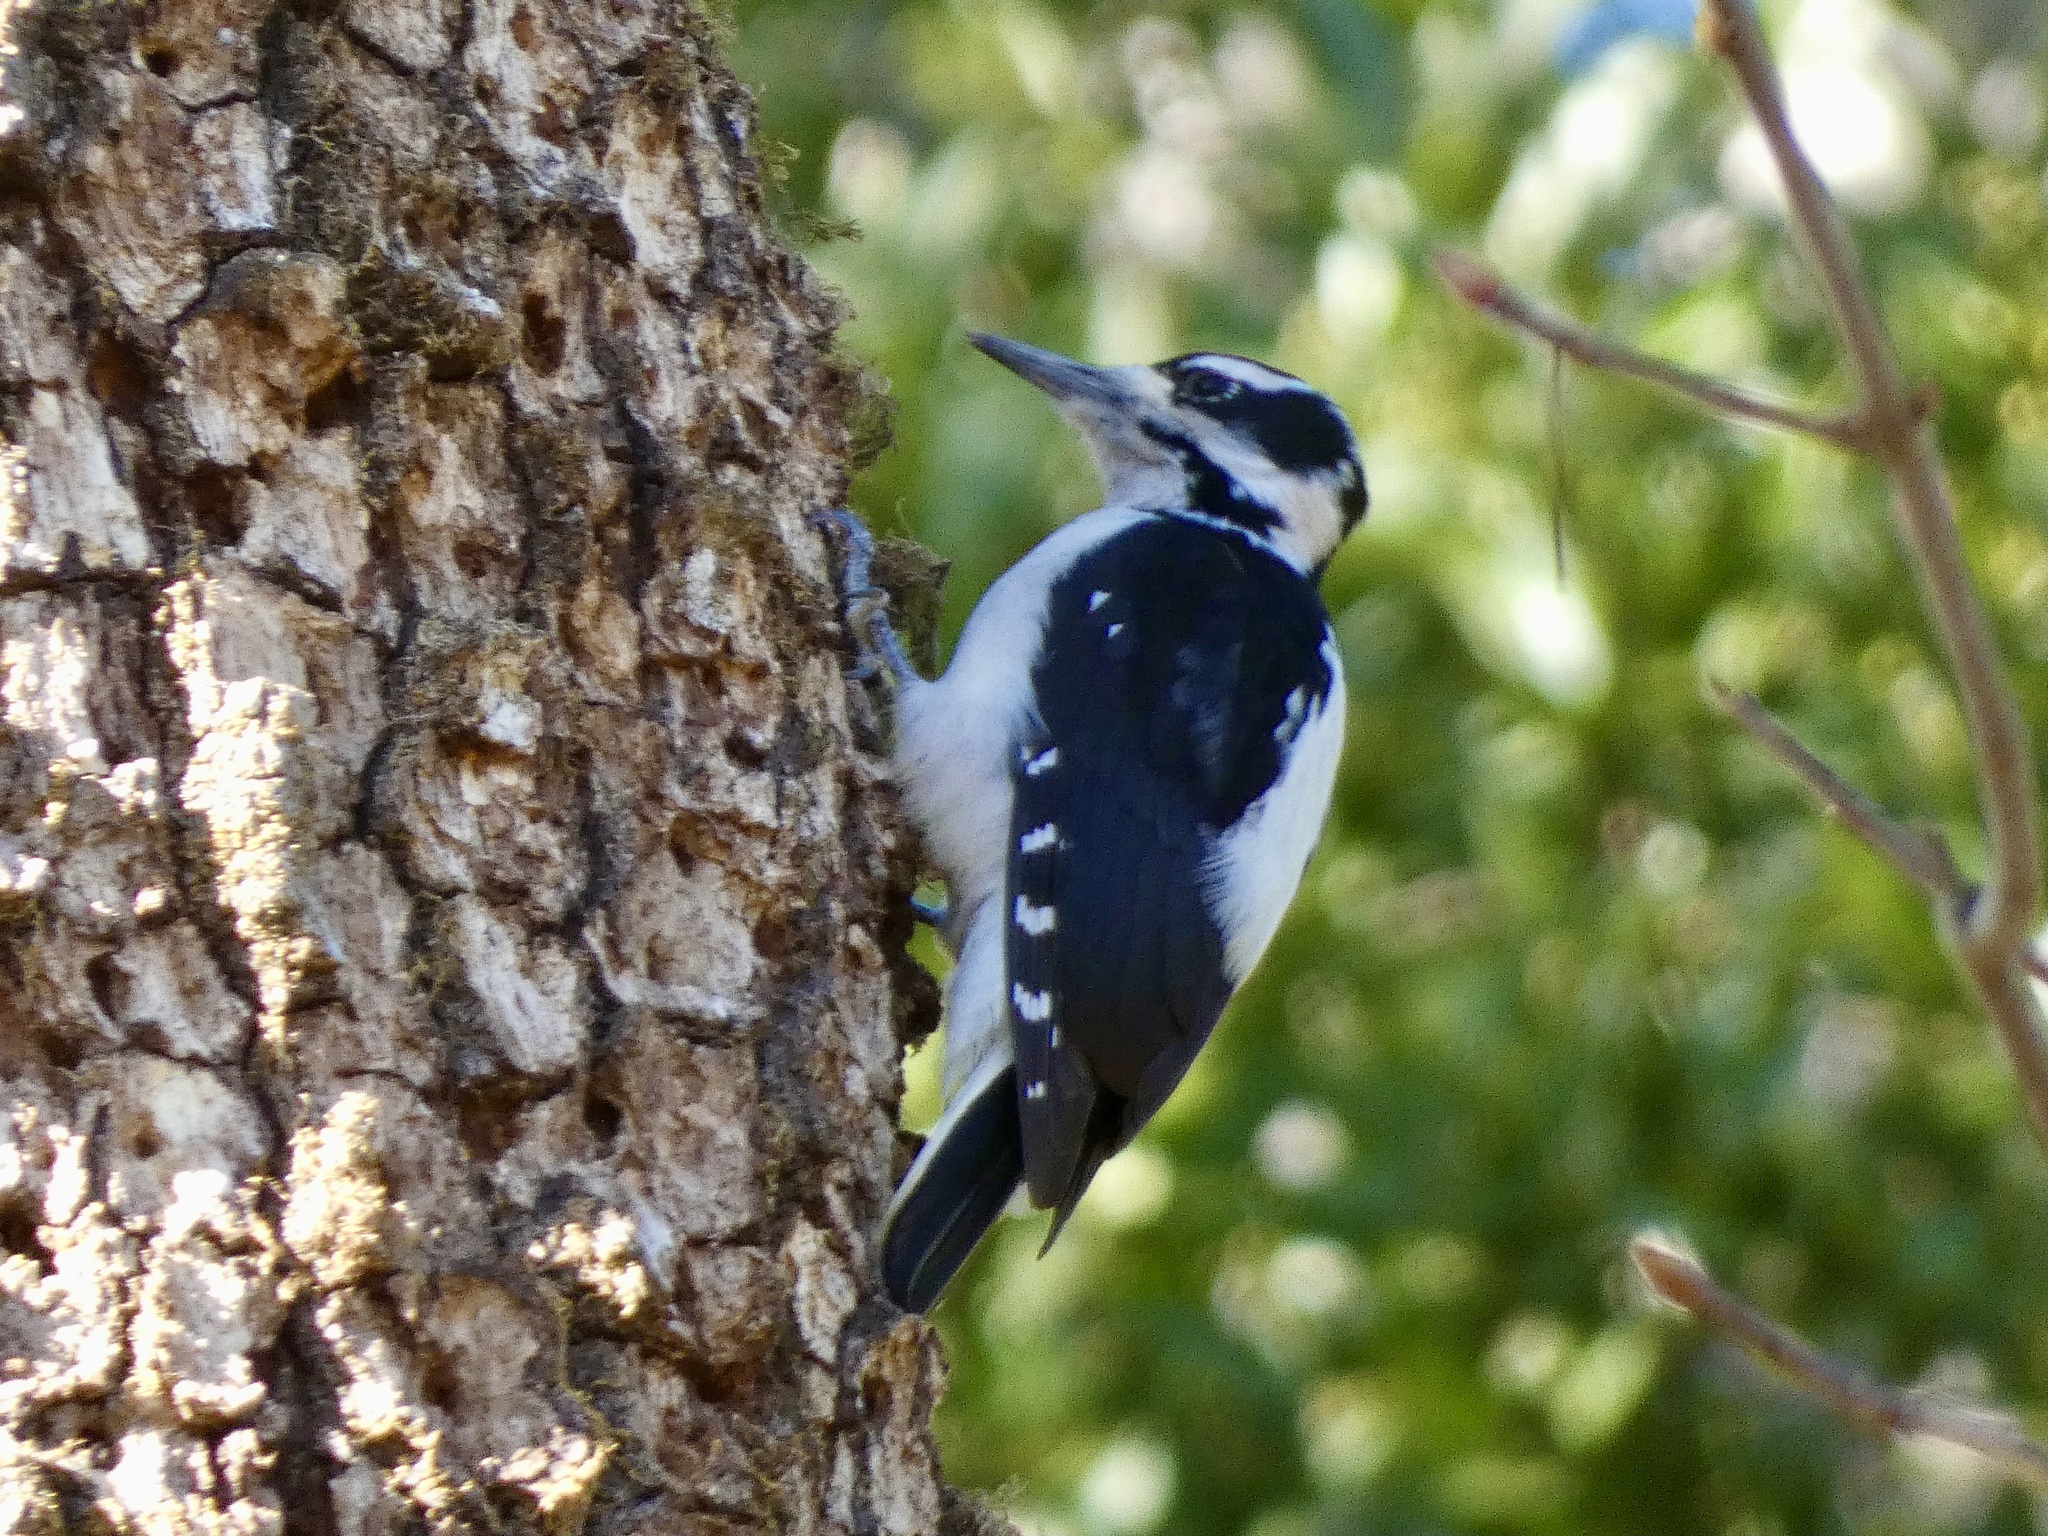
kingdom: Animalia
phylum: Chordata
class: Aves
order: Piciformes
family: Picidae
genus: Leuconotopicus
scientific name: Leuconotopicus villosus
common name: Hairy woodpecker
